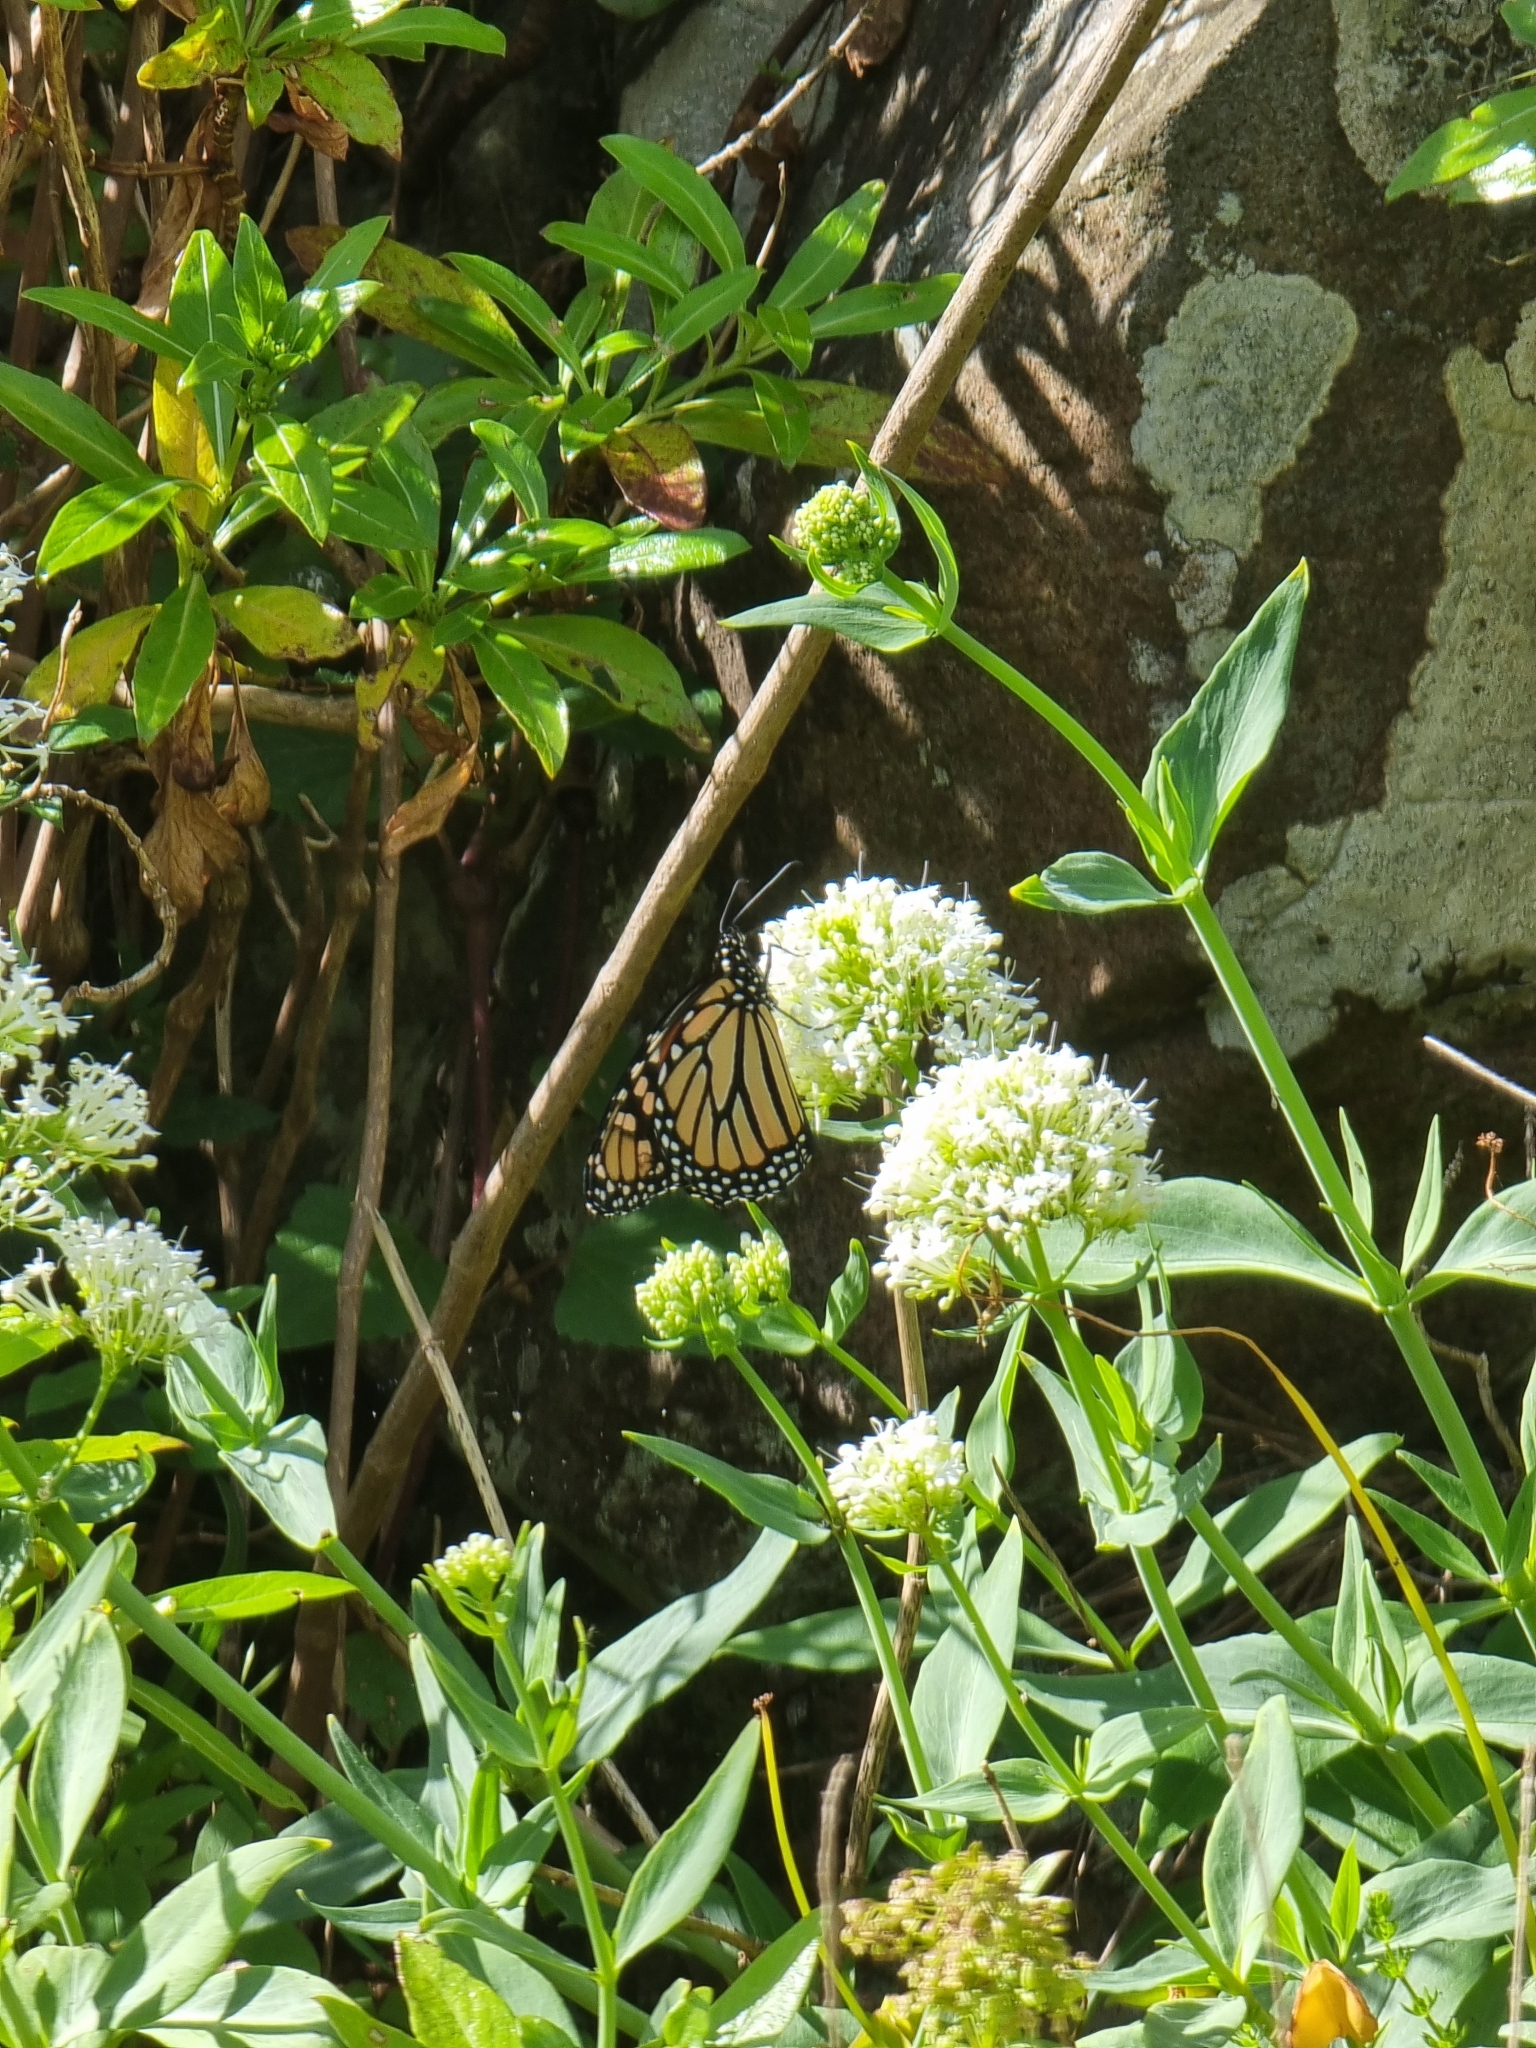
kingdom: Animalia
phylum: Arthropoda
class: Insecta
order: Lepidoptera
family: Nymphalidae
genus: Danaus
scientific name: Danaus plexippus
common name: Monarch
